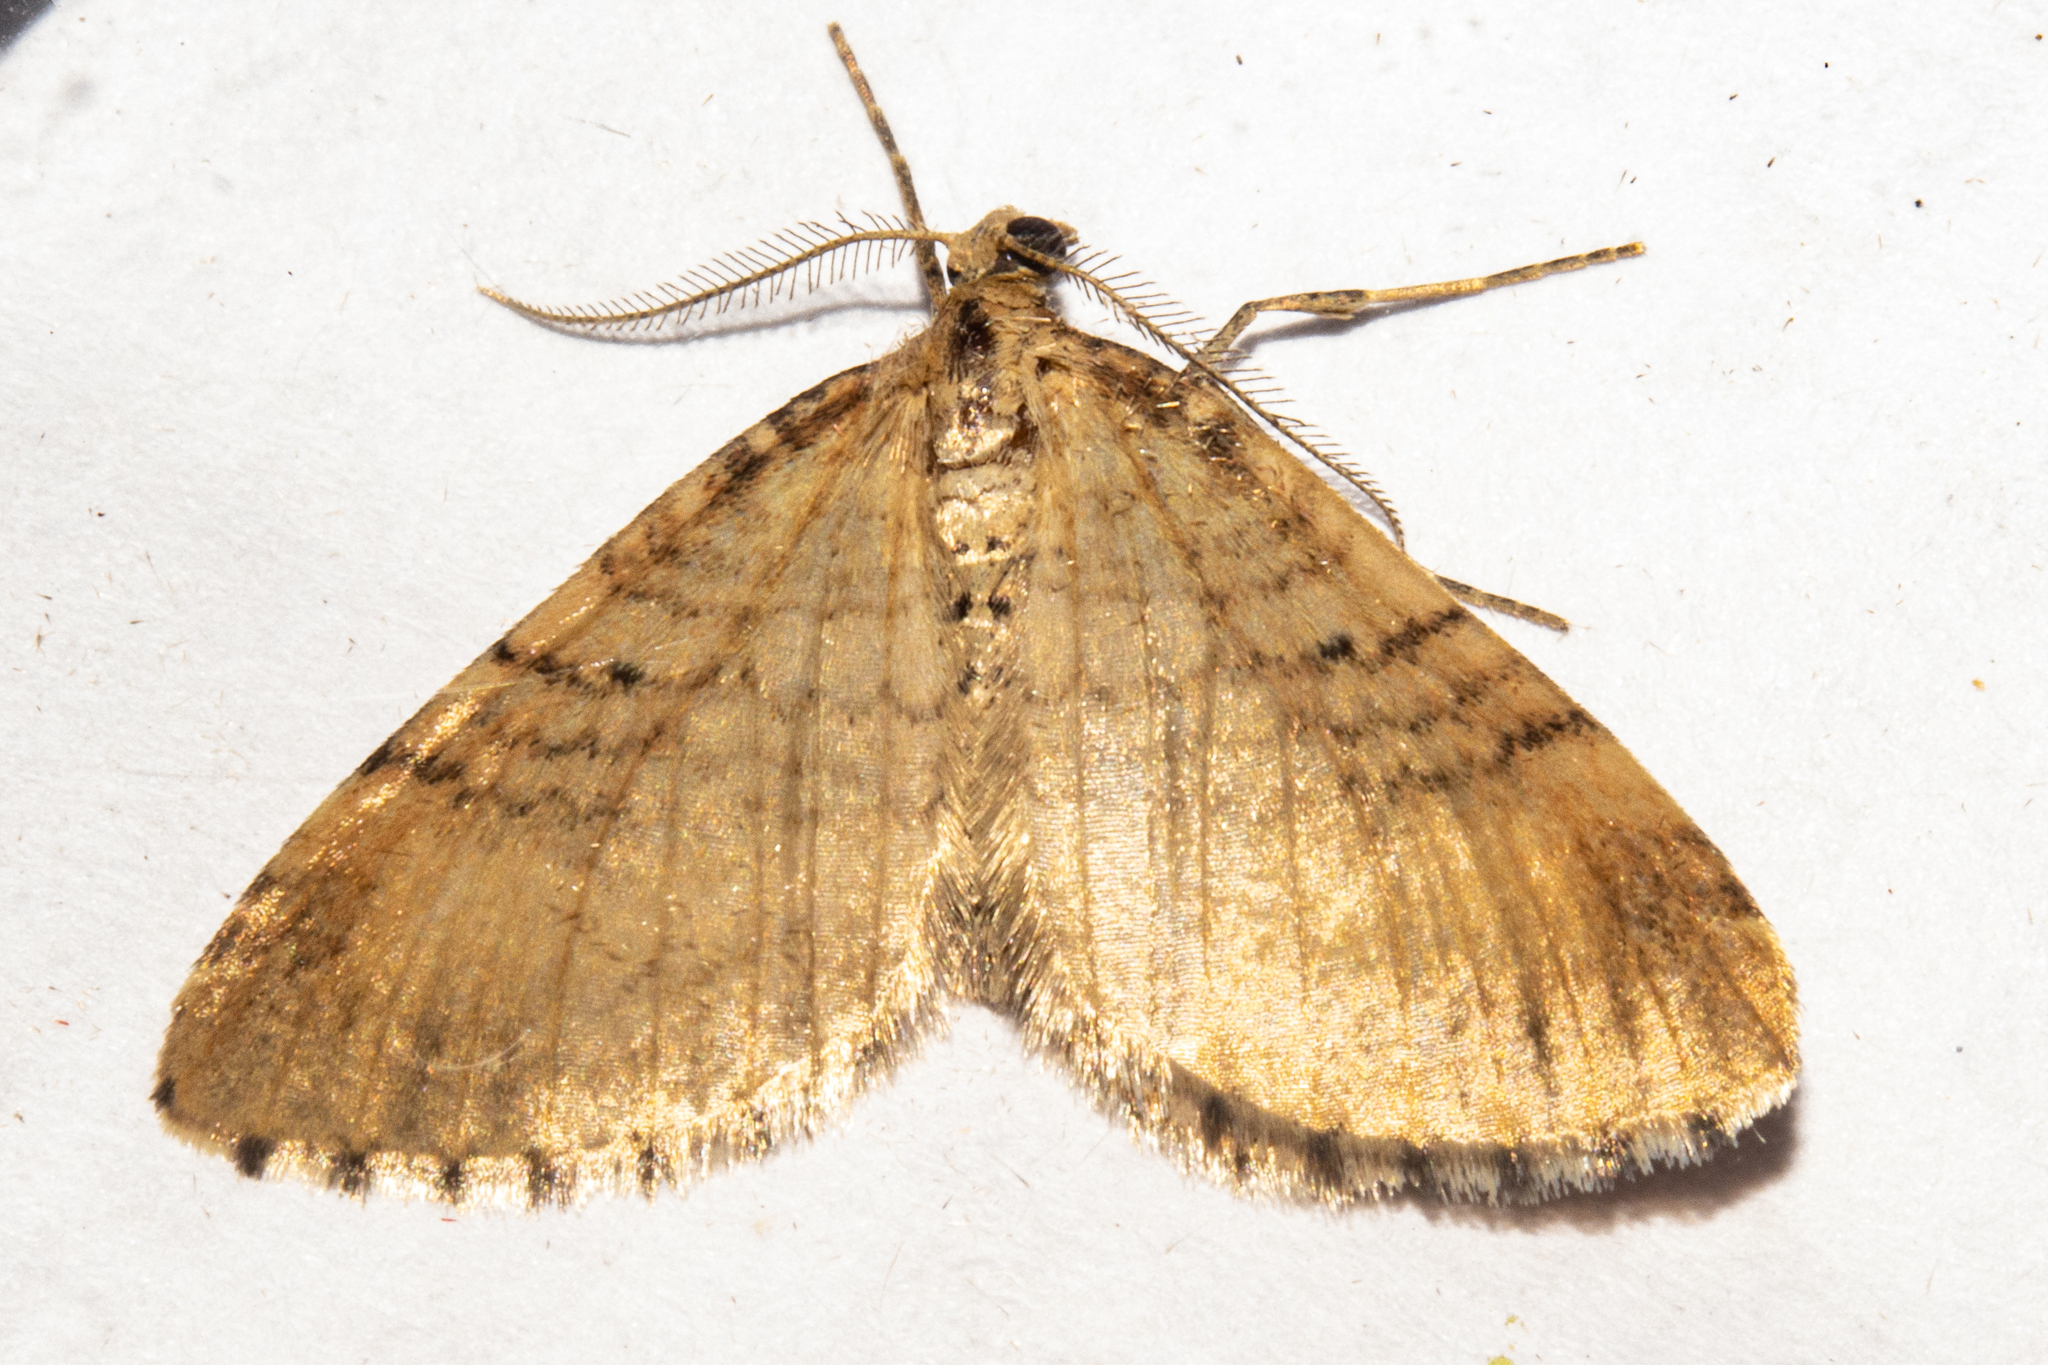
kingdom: Animalia
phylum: Arthropoda
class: Insecta
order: Lepidoptera
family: Geometridae
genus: Asaphodes
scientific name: Asaphodes aegrota
